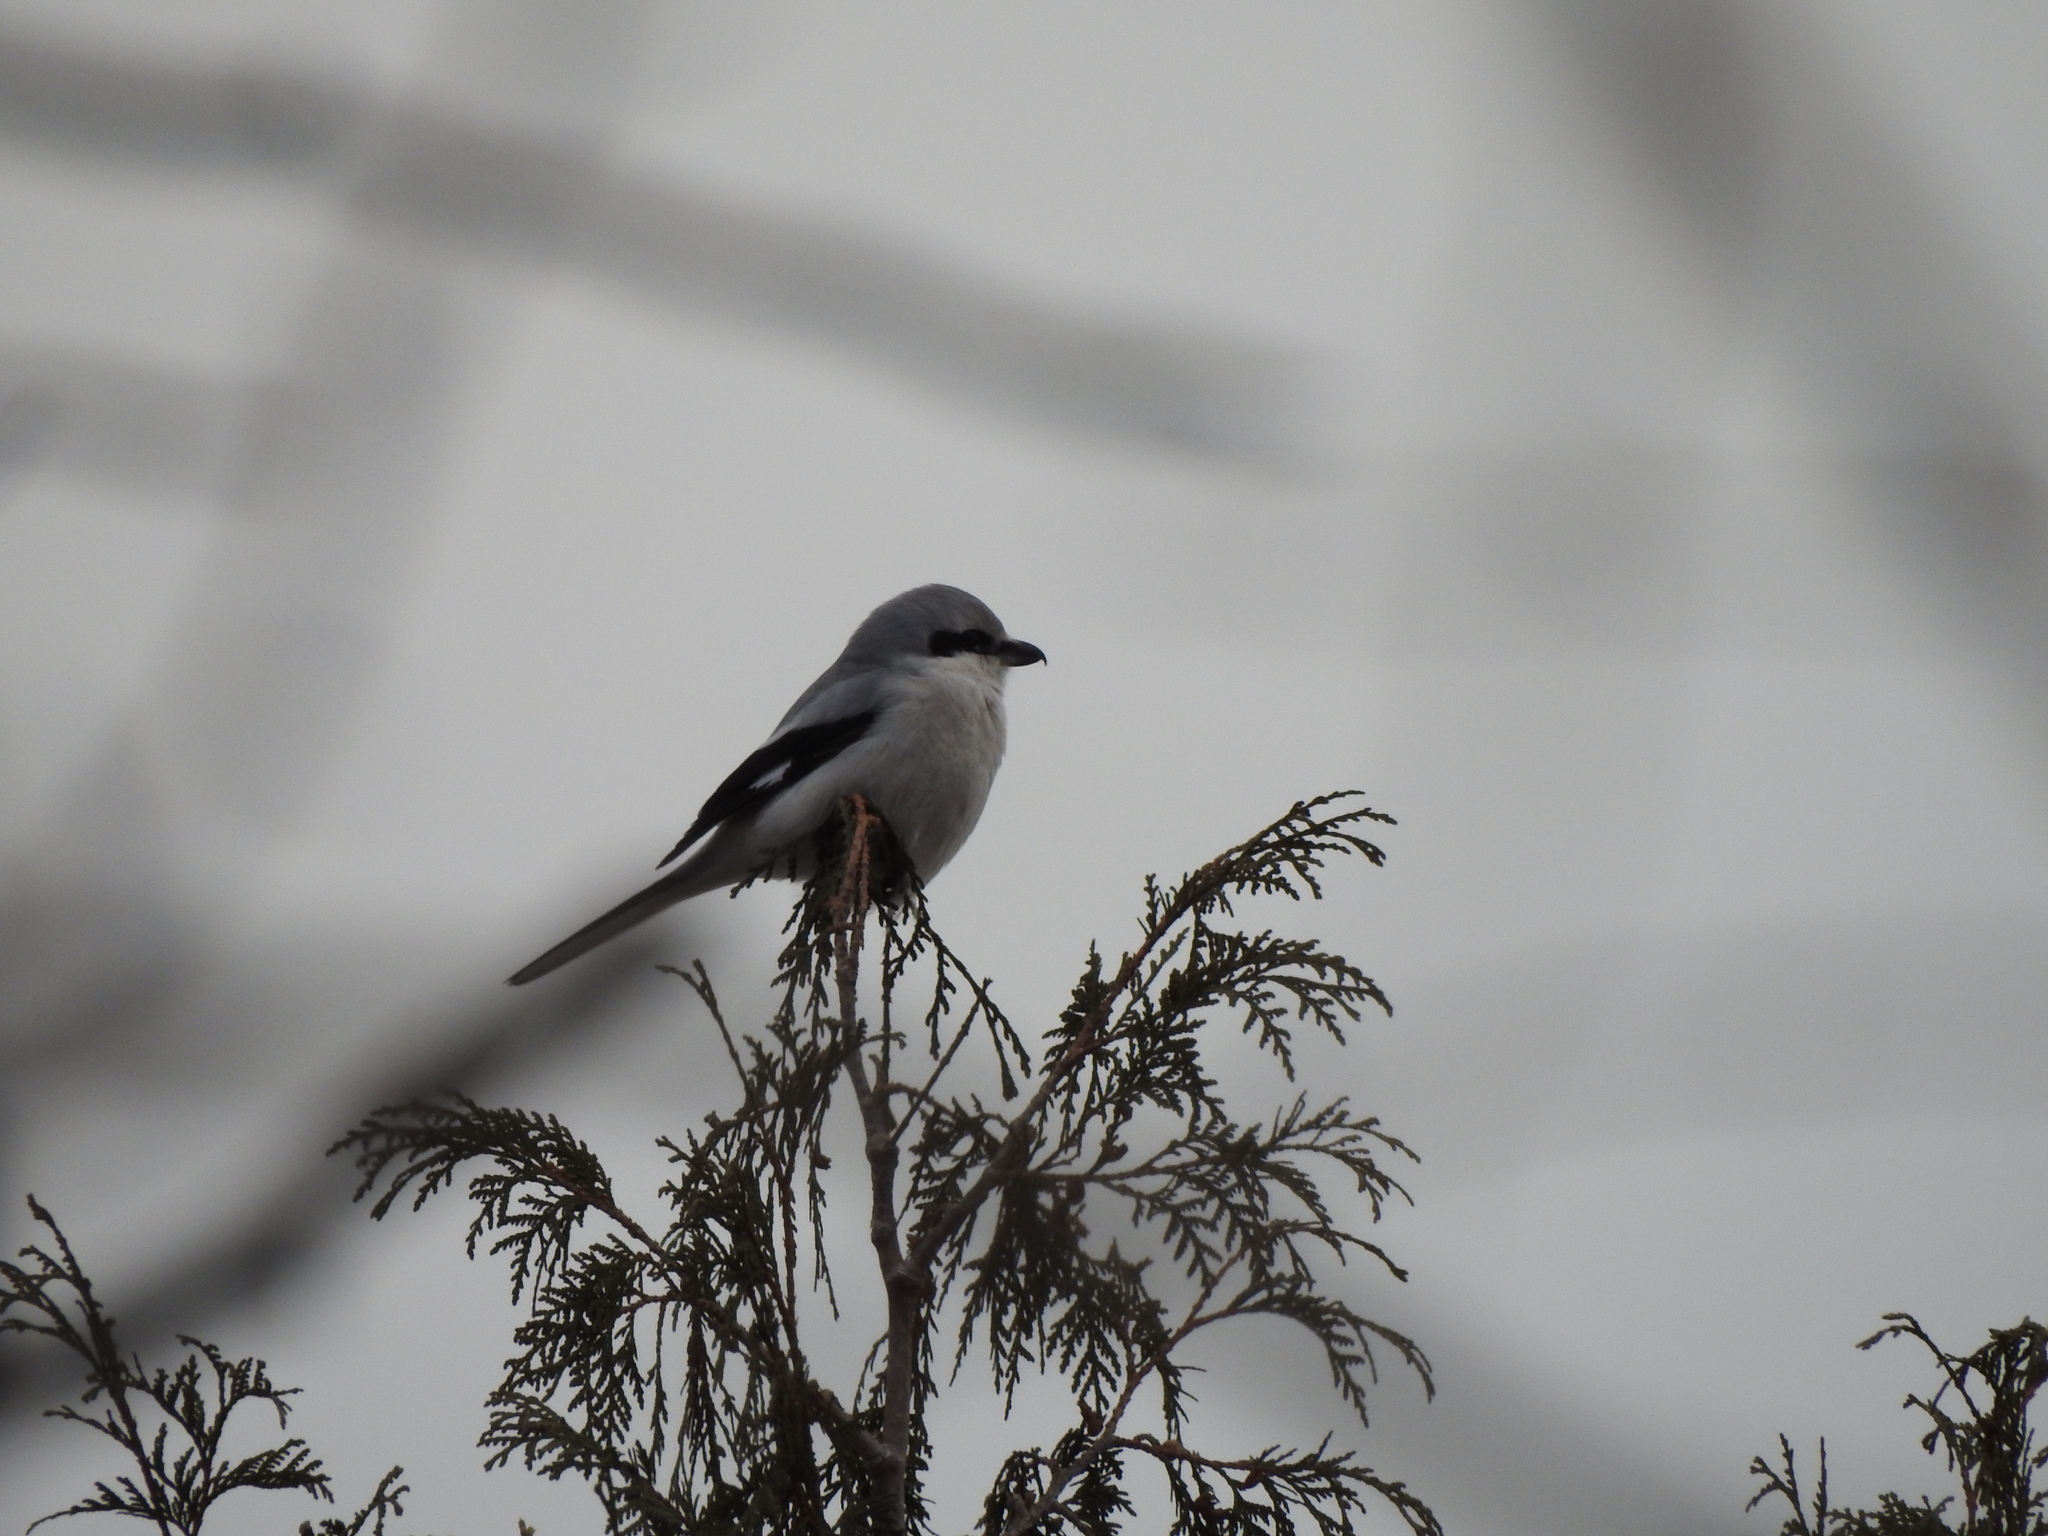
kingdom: Animalia
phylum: Chordata
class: Aves
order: Passeriformes
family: Laniidae
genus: Lanius
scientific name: Lanius borealis
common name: Northern shrike
